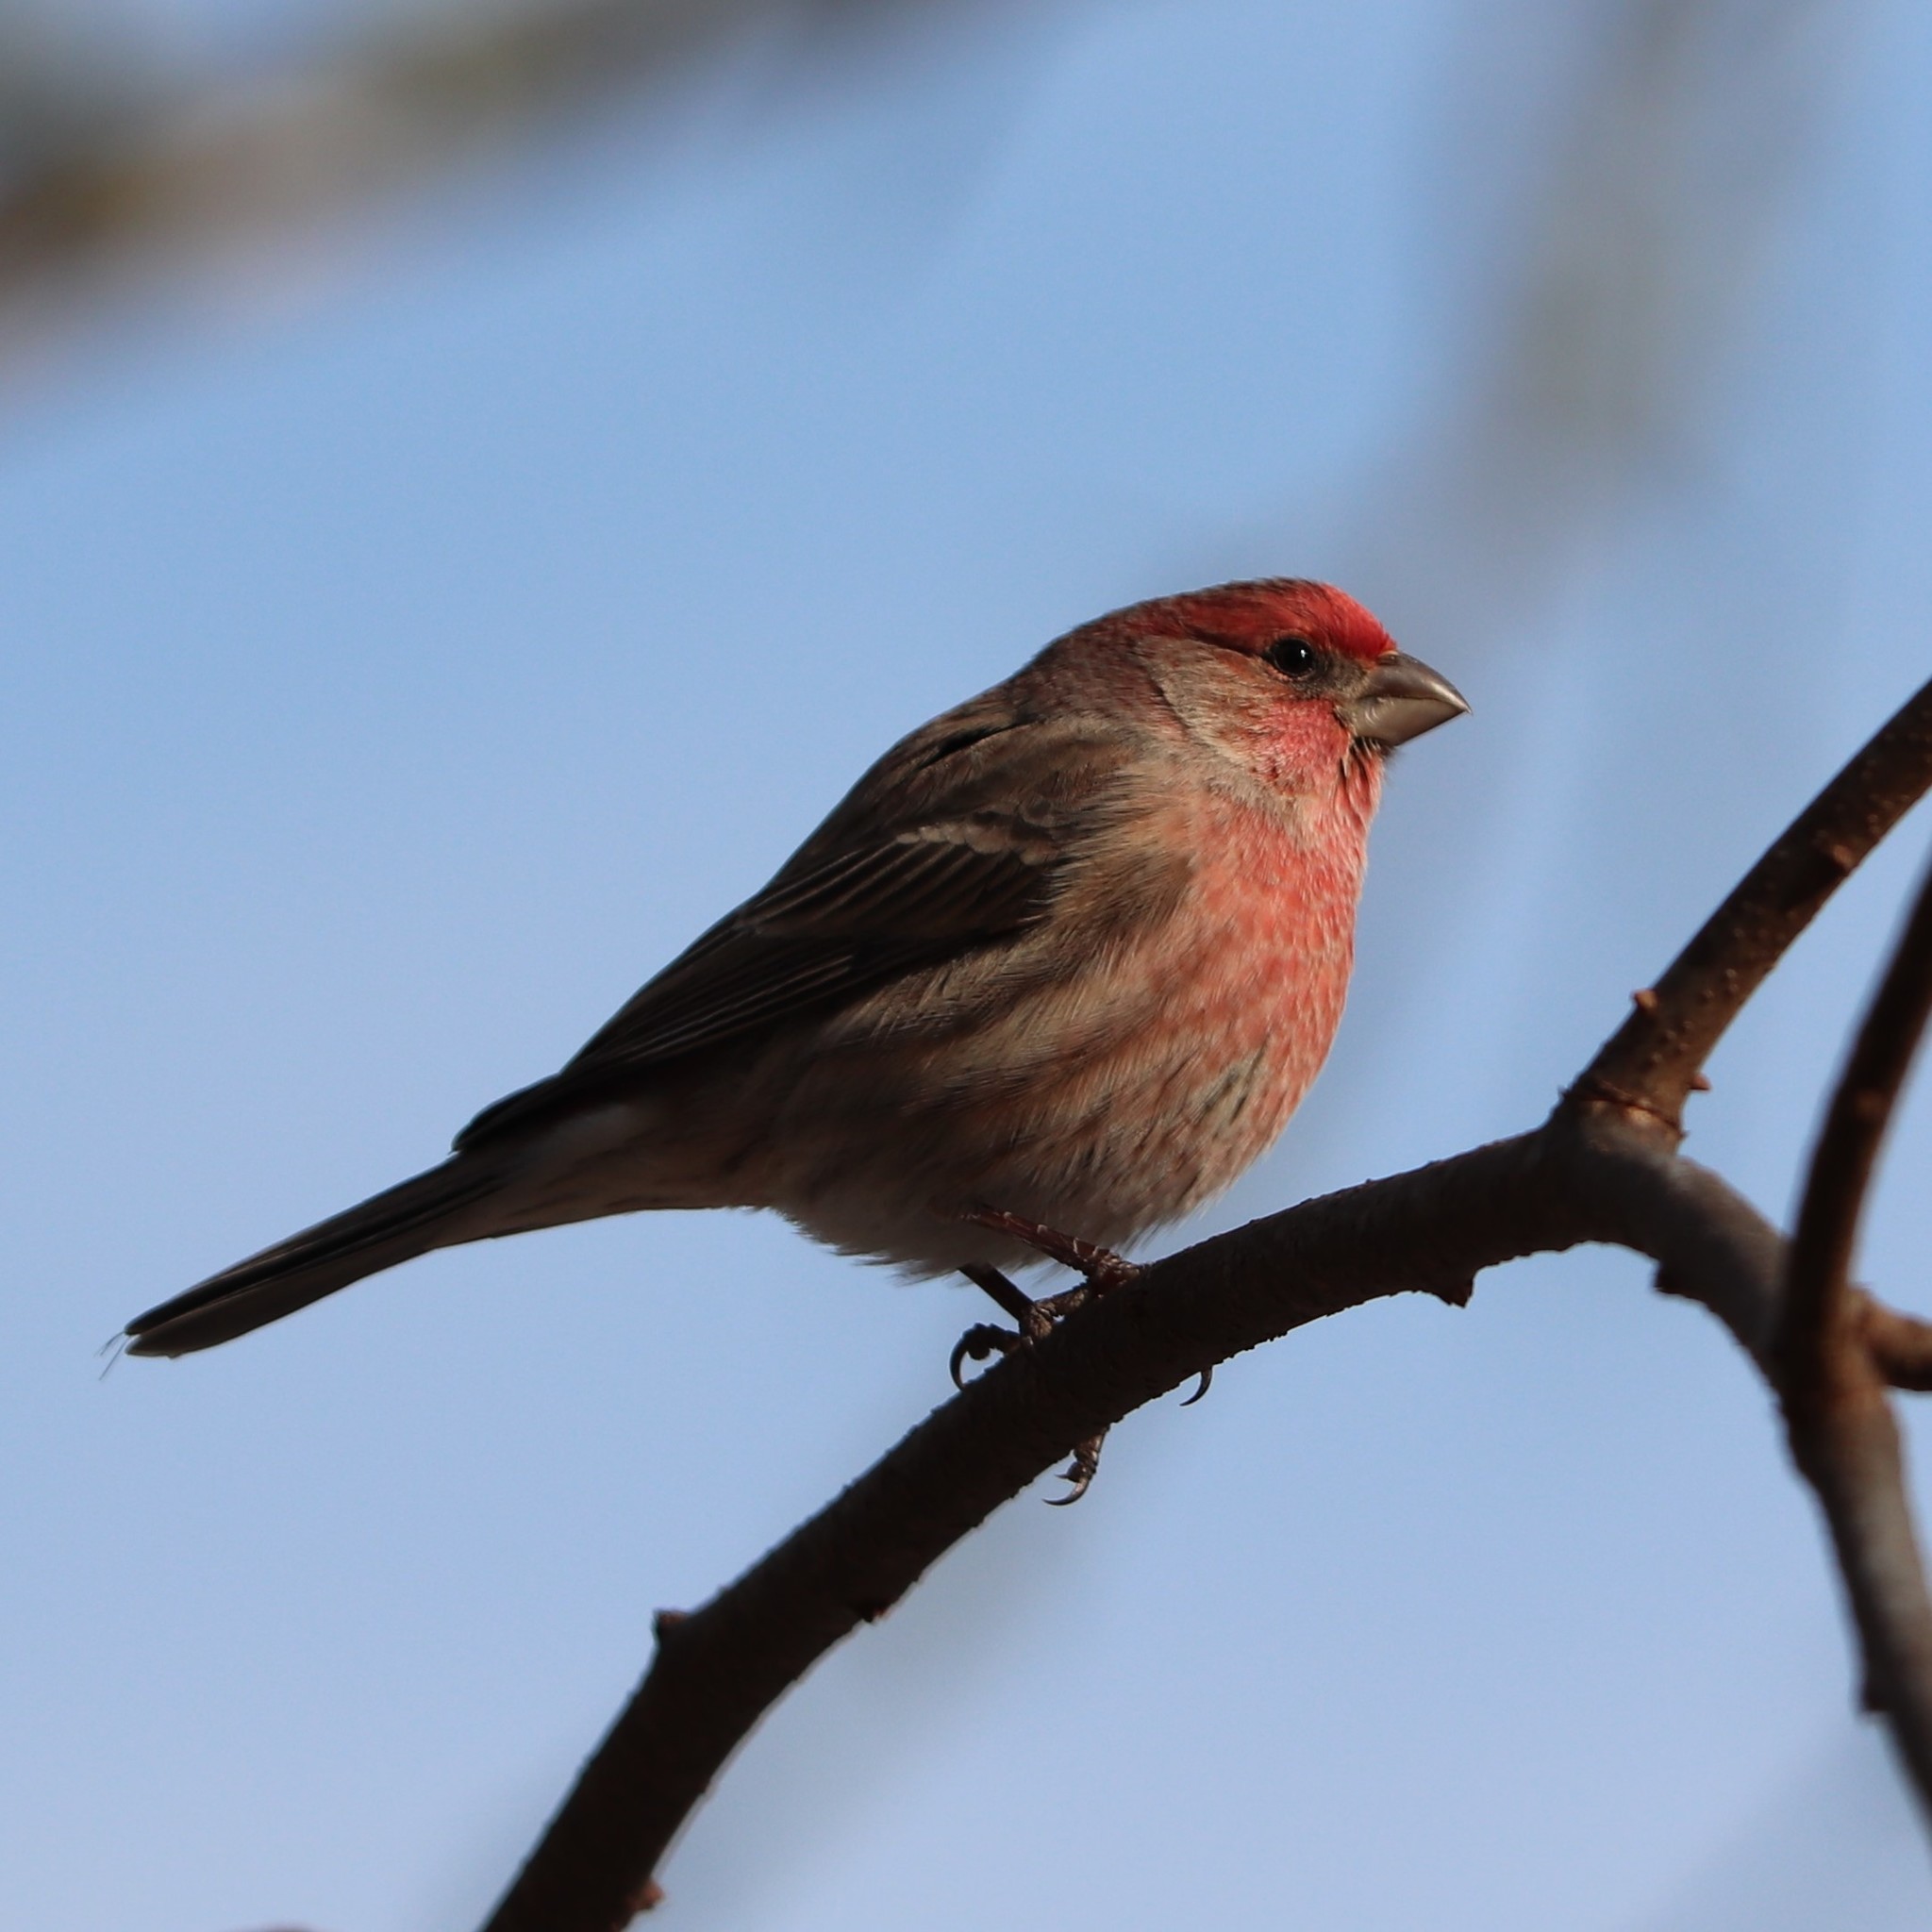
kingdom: Animalia
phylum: Chordata
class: Aves
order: Passeriformes
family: Fringillidae
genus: Haemorhous
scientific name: Haemorhous mexicanus
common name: House finch
